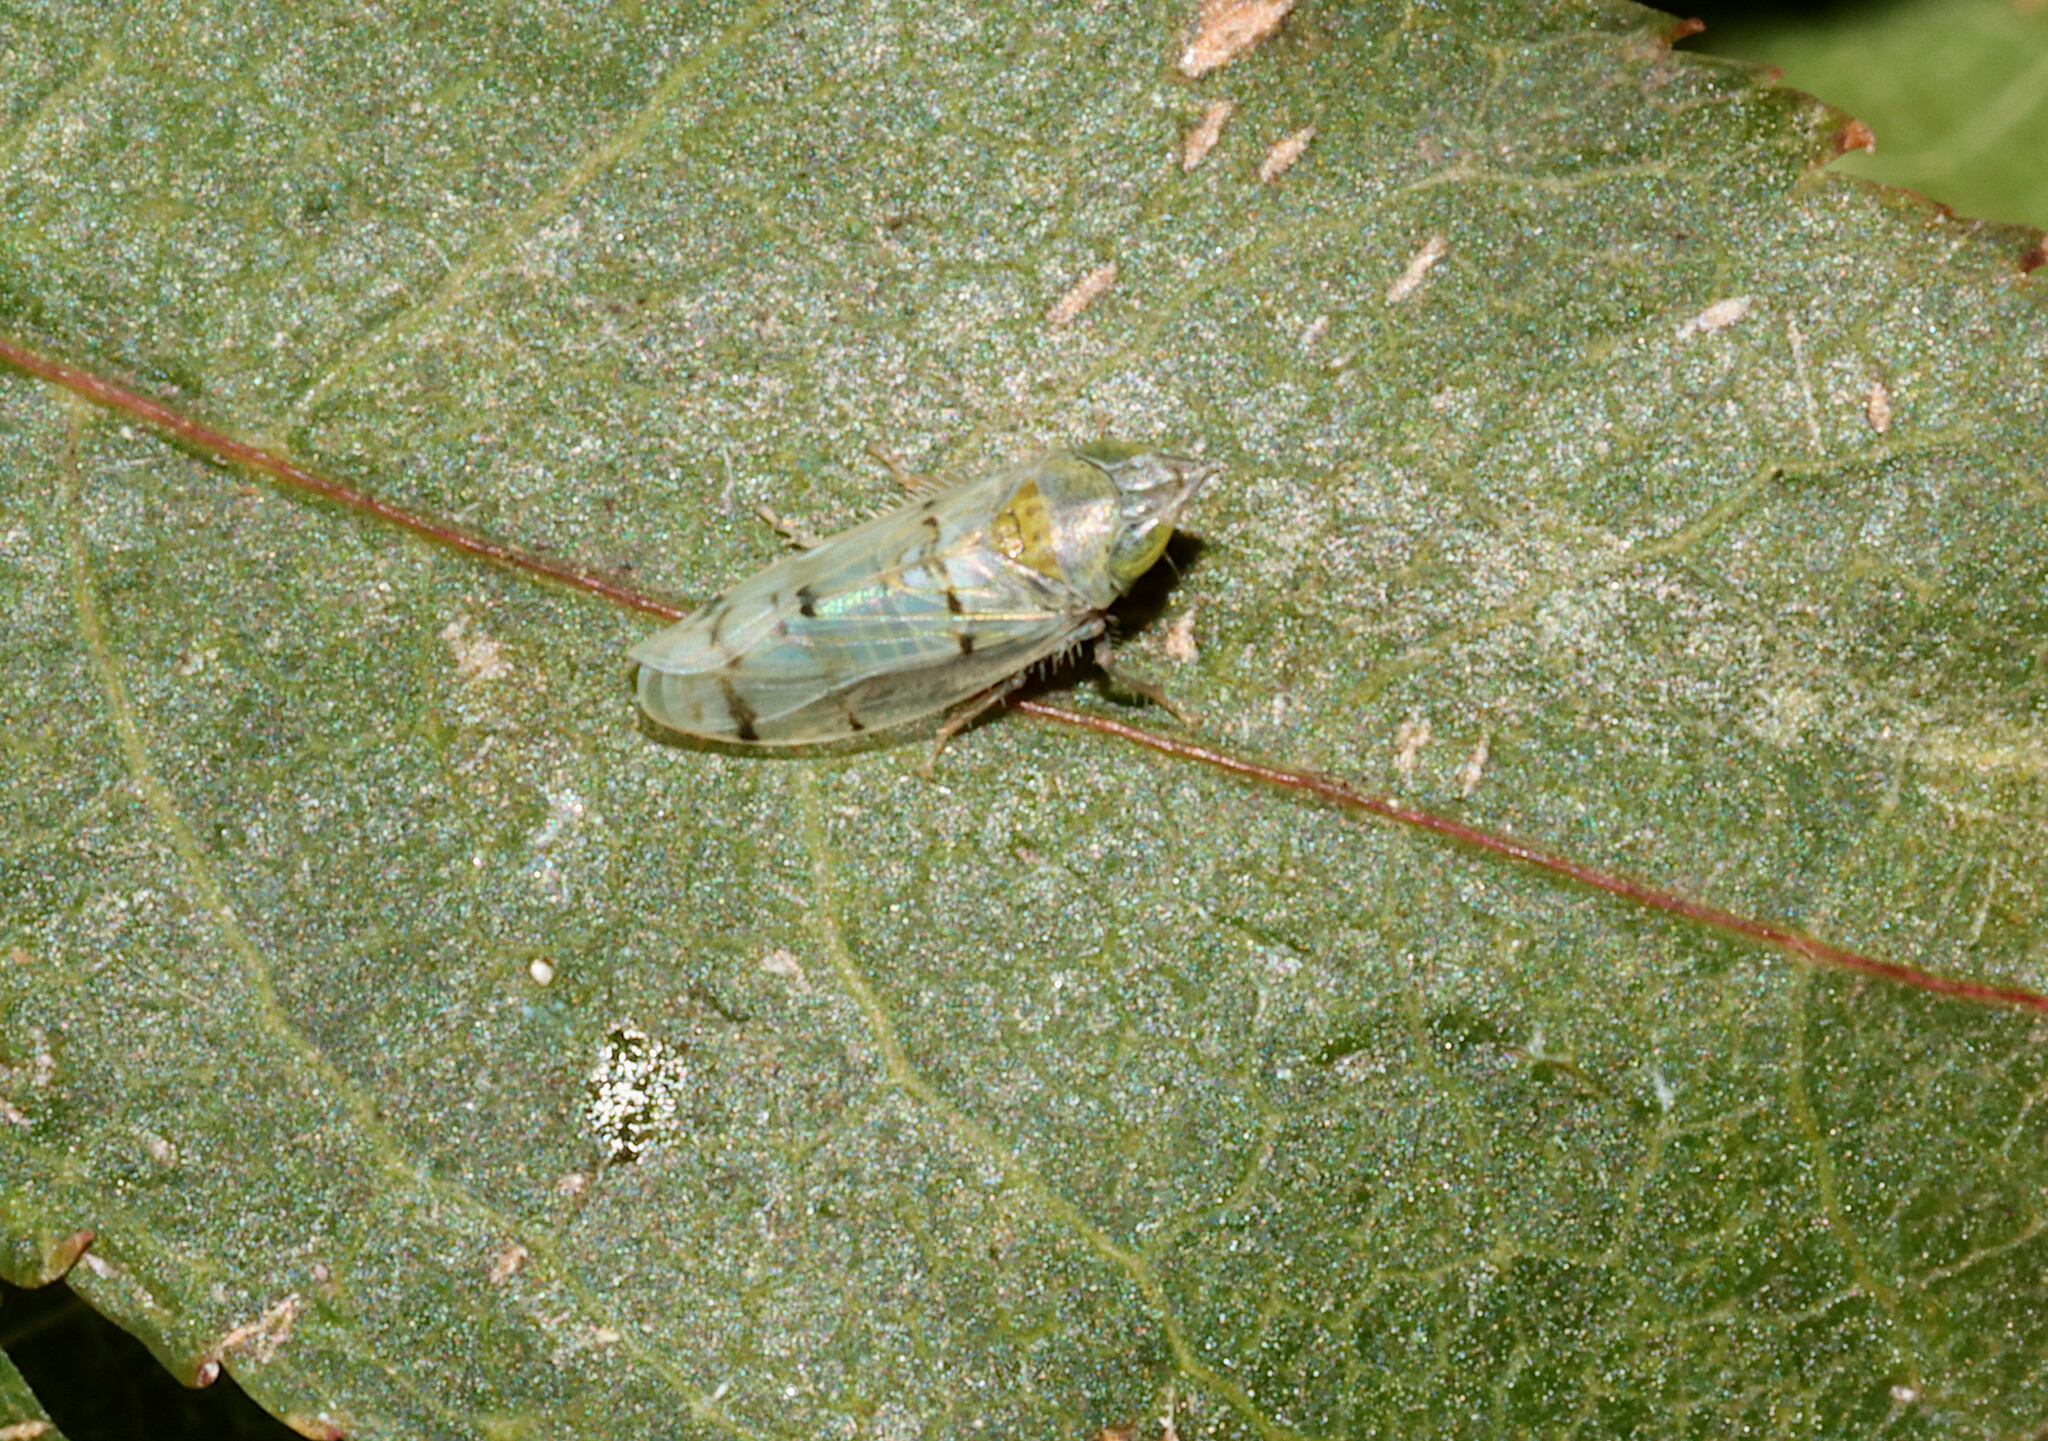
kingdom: Animalia
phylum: Arthropoda
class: Insecta
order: Hemiptera
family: Cicadellidae
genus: Japananus
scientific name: Japananus hyalinus
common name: The japanese maple leafhopper
